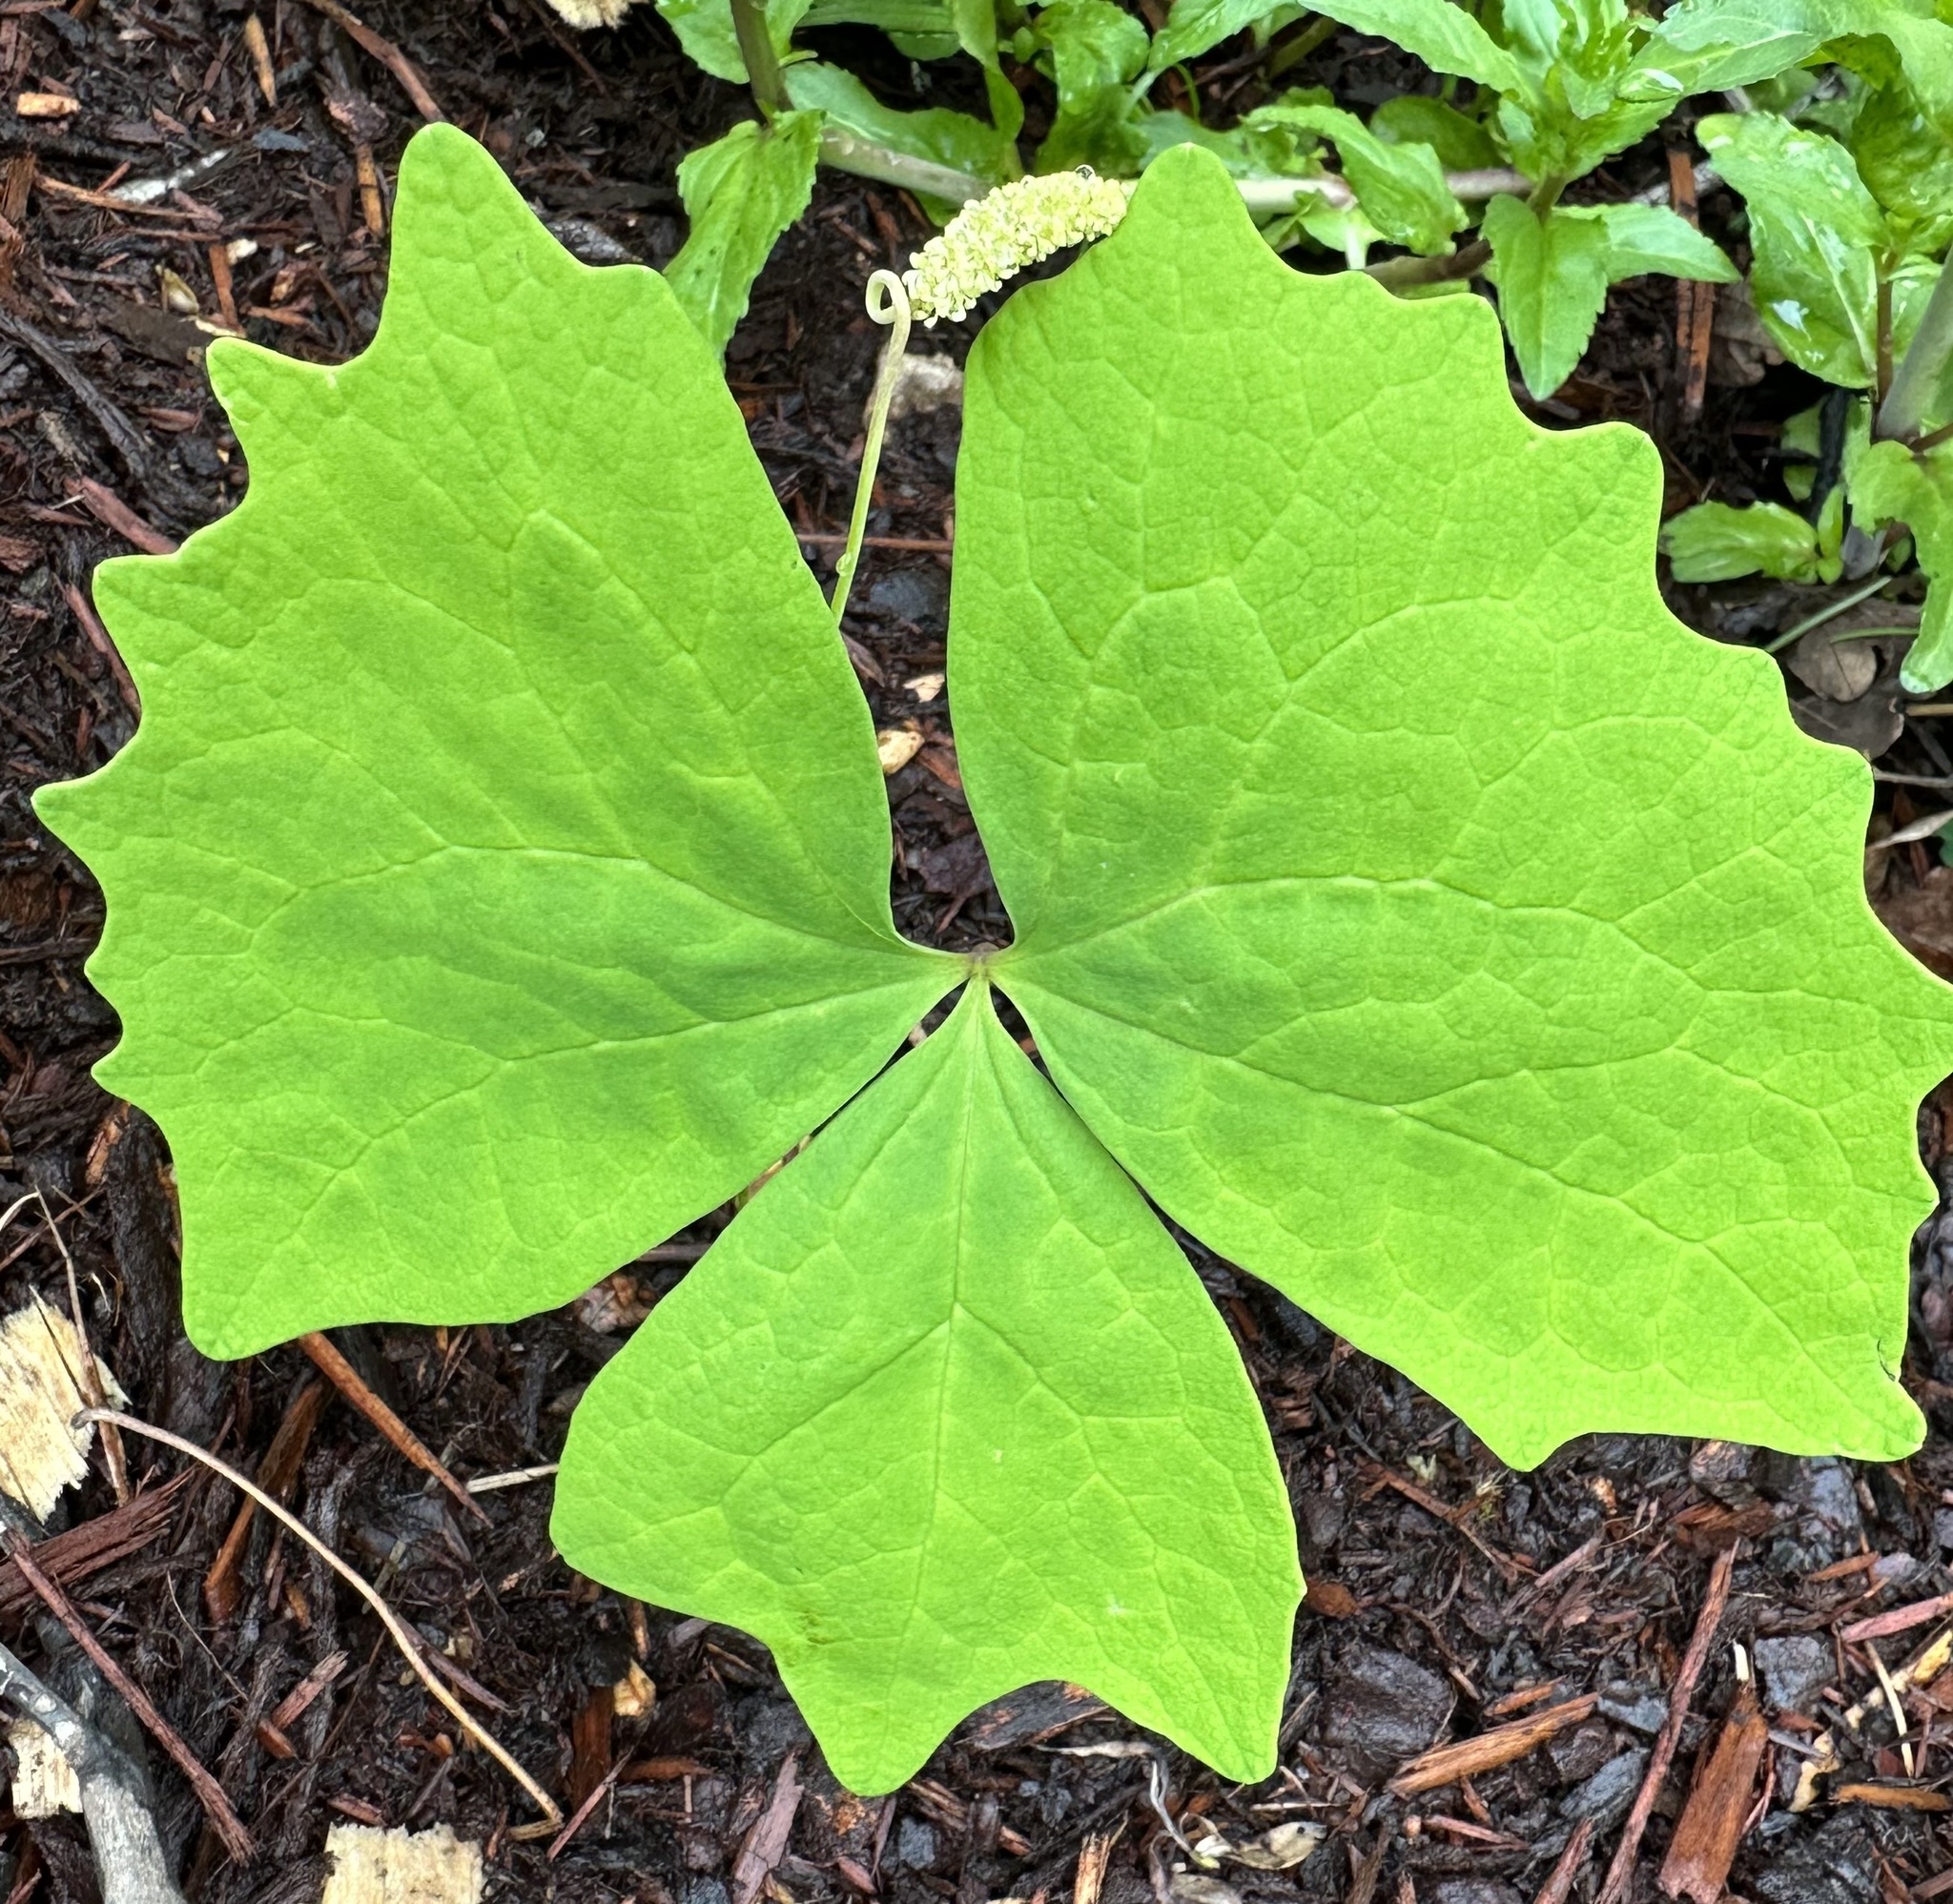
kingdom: Plantae
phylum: Tracheophyta
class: Magnoliopsida
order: Ranunculales
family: Berberidaceae
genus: Achlys
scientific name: Achlys triphylla
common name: Vanilla-leaf
